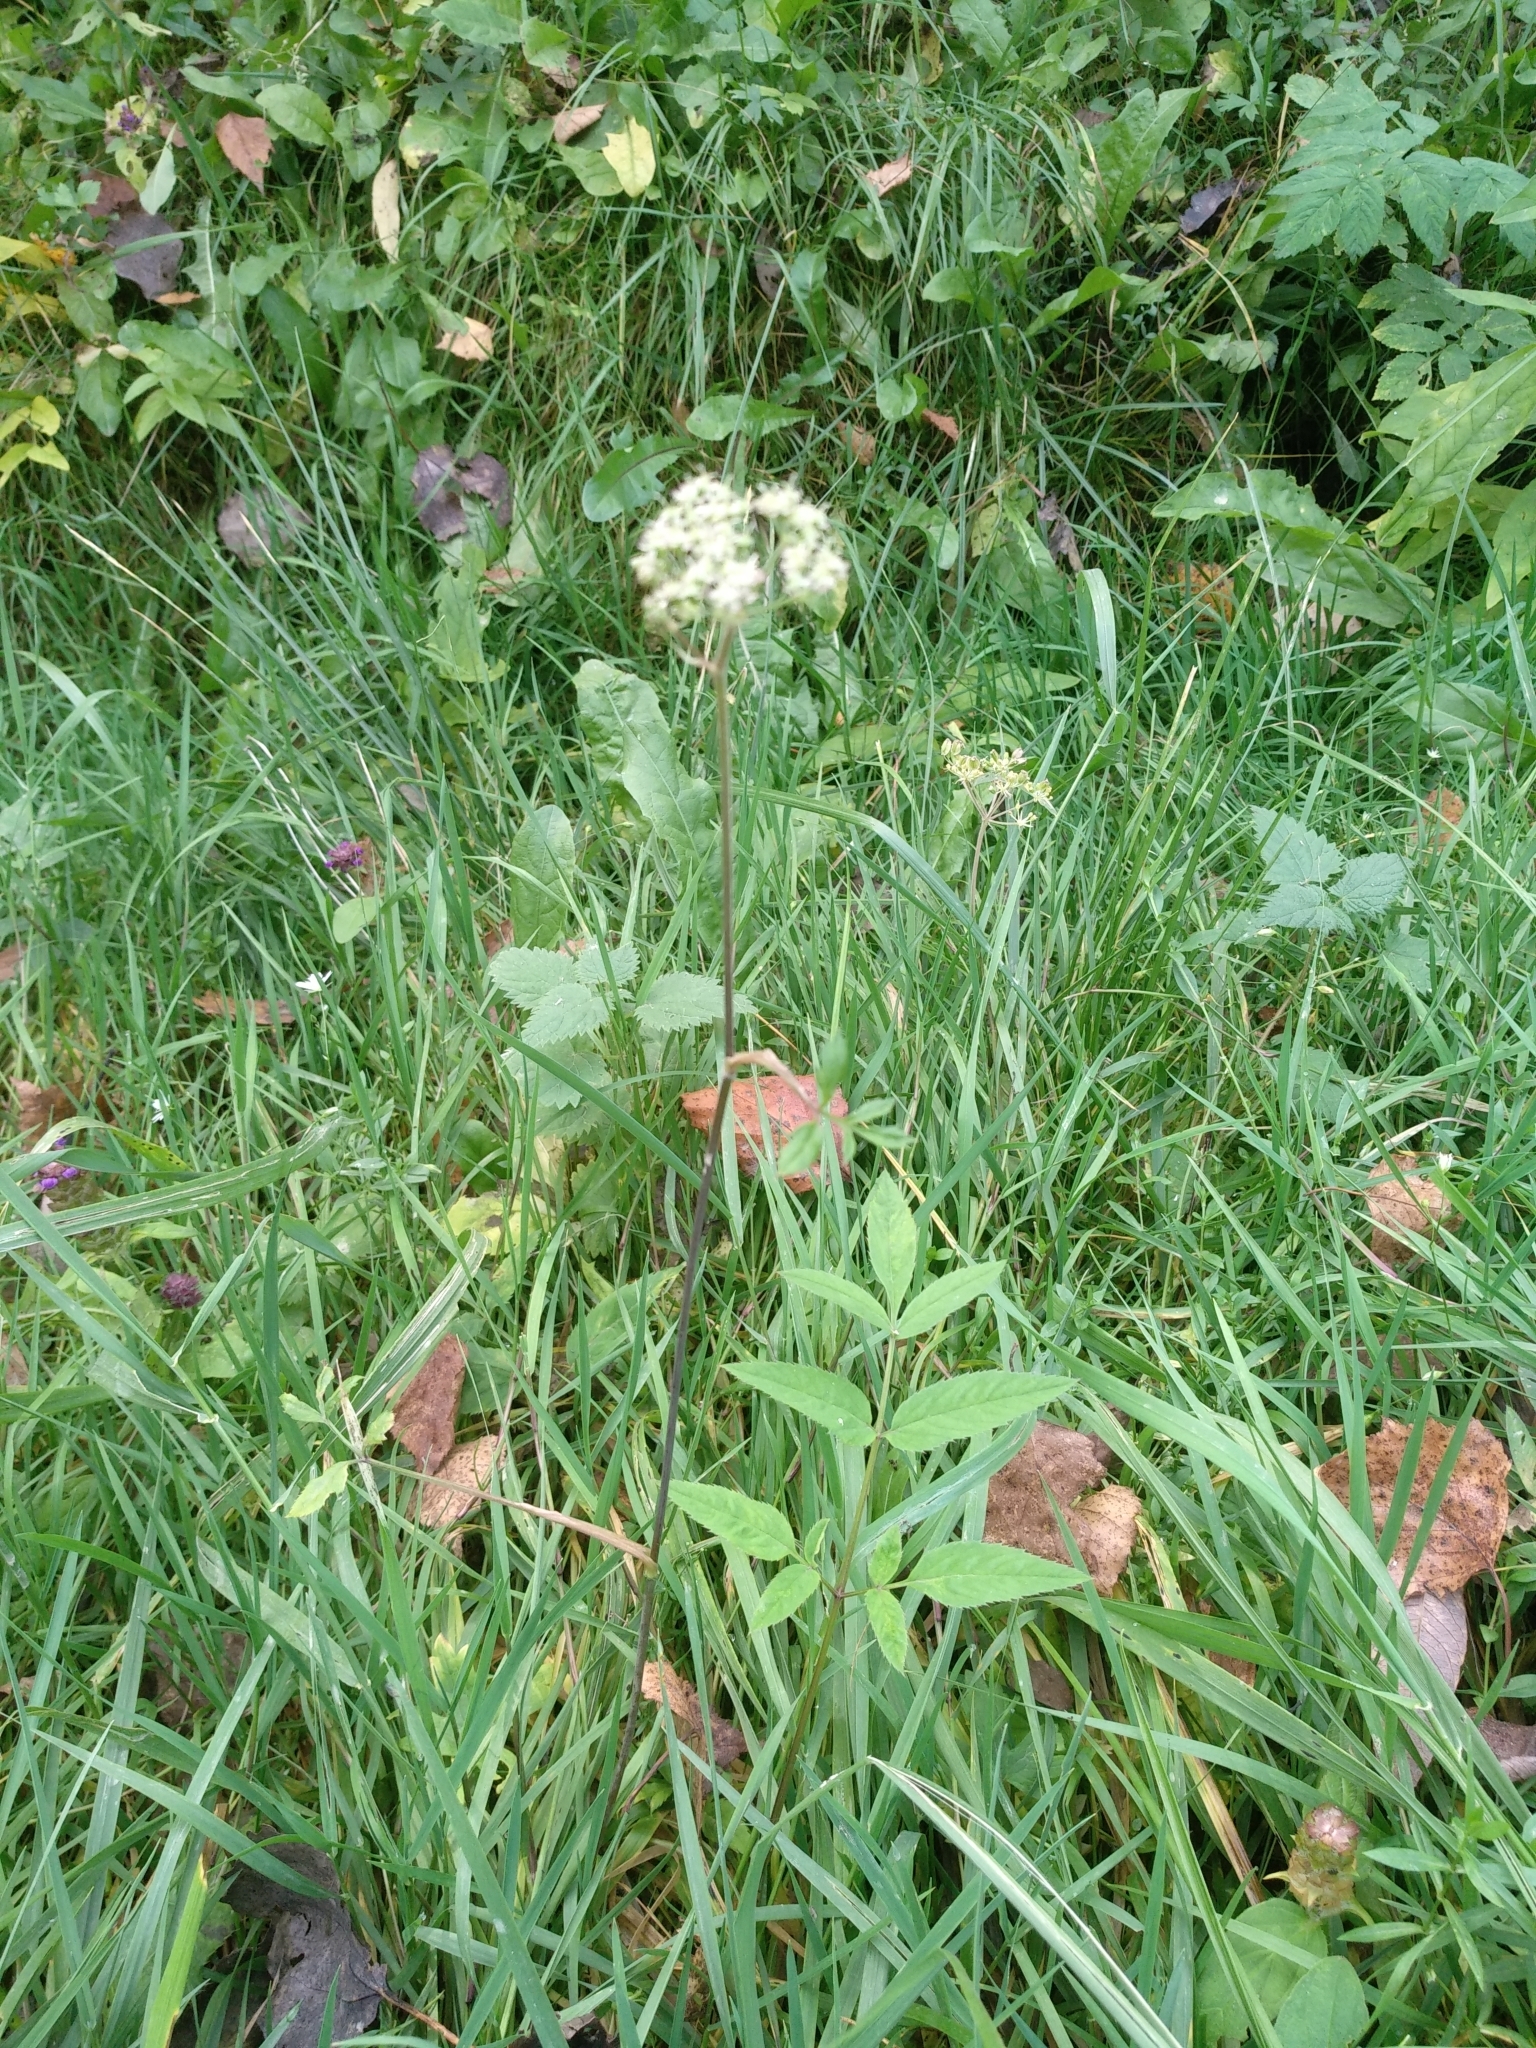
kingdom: Plantae
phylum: Tracheophyta
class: Magnoliopsida
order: Apiales
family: Apiaceae
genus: Angelica
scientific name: Angelica sylvestris
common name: Wild angelica
